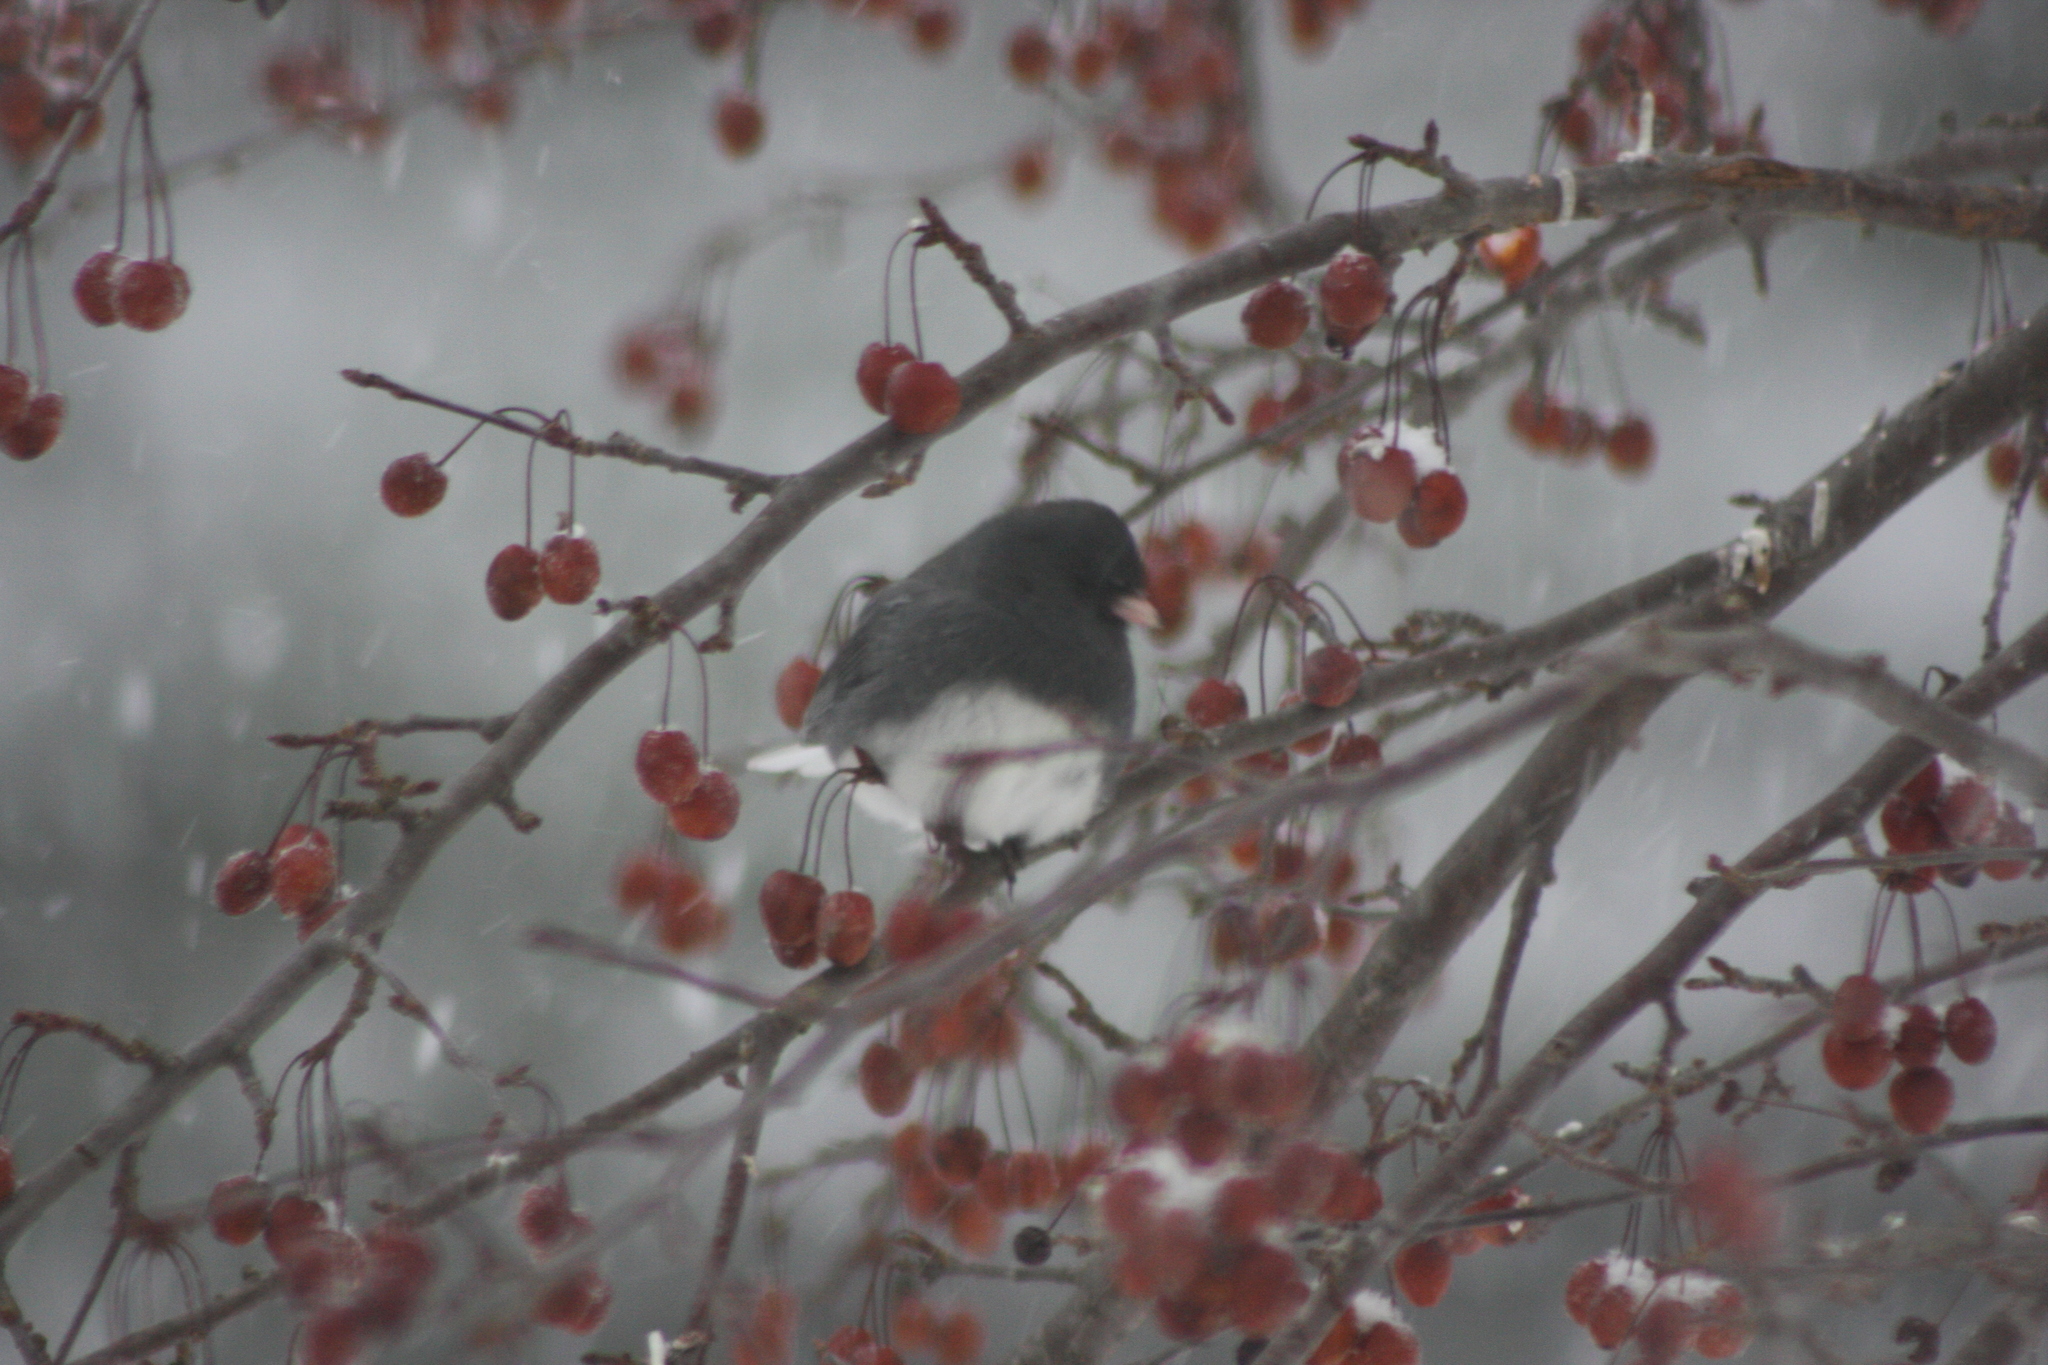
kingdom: Animalia
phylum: Chordata
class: Aves
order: Passeriformes
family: Passerellidae
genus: Junco
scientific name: Junco hyemalis
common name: Dark-eyed junco
